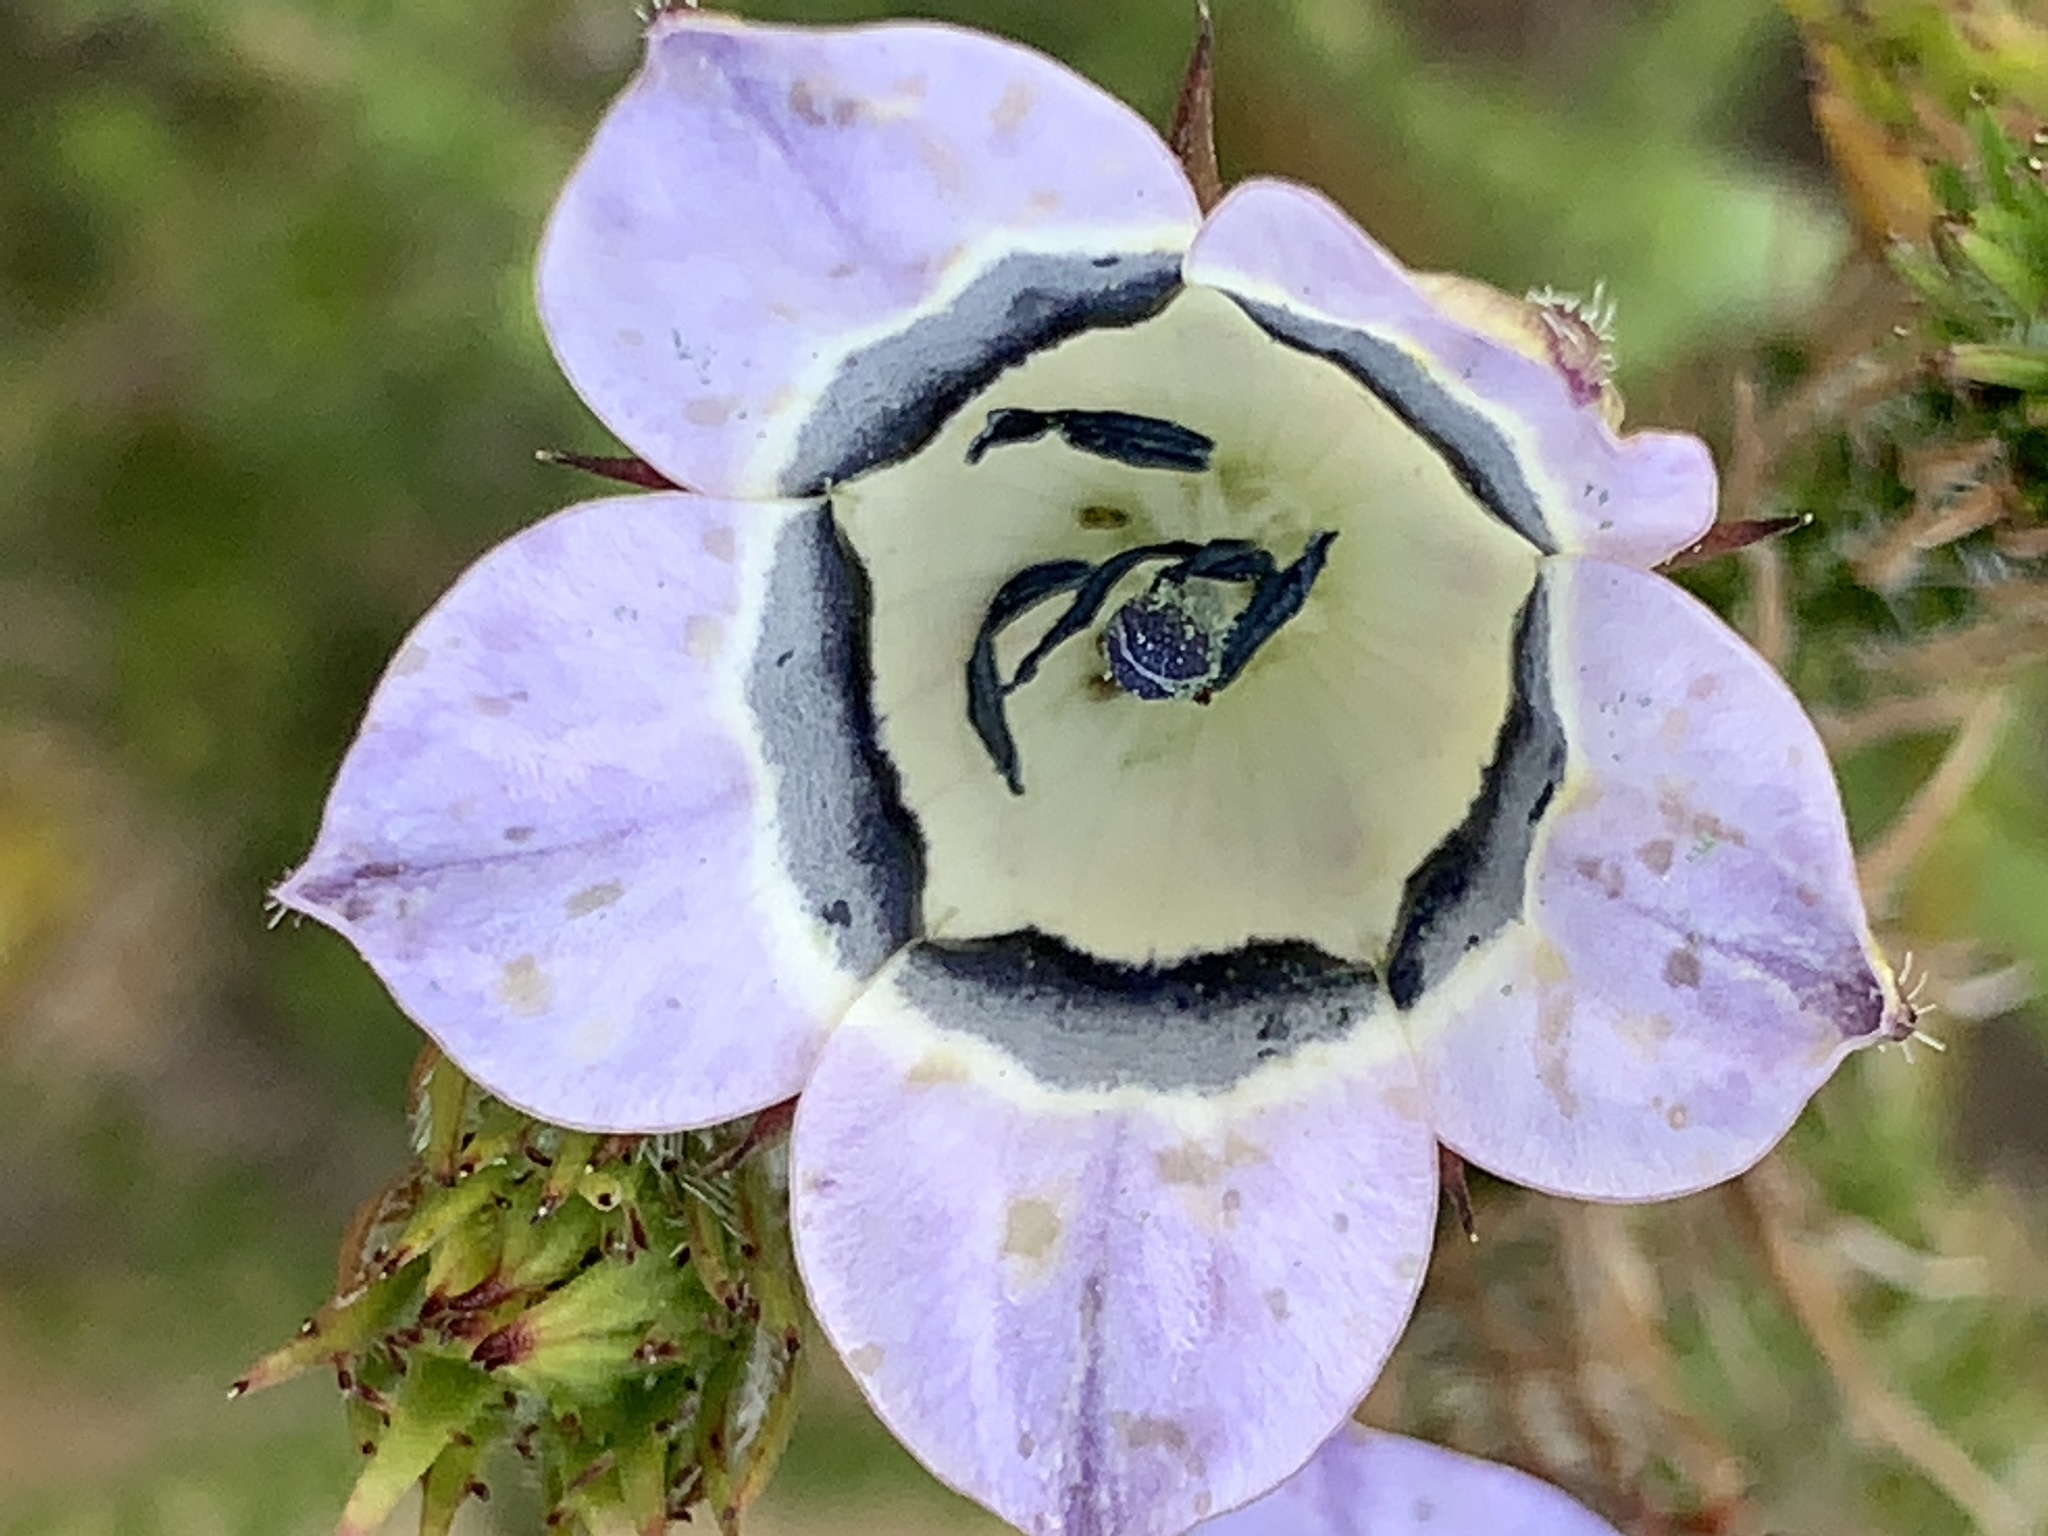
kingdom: Plantae
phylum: Tracheophyta
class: Magnoliopsida
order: Asterales
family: Campanulaceae
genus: Roella
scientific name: Roella ciliata
